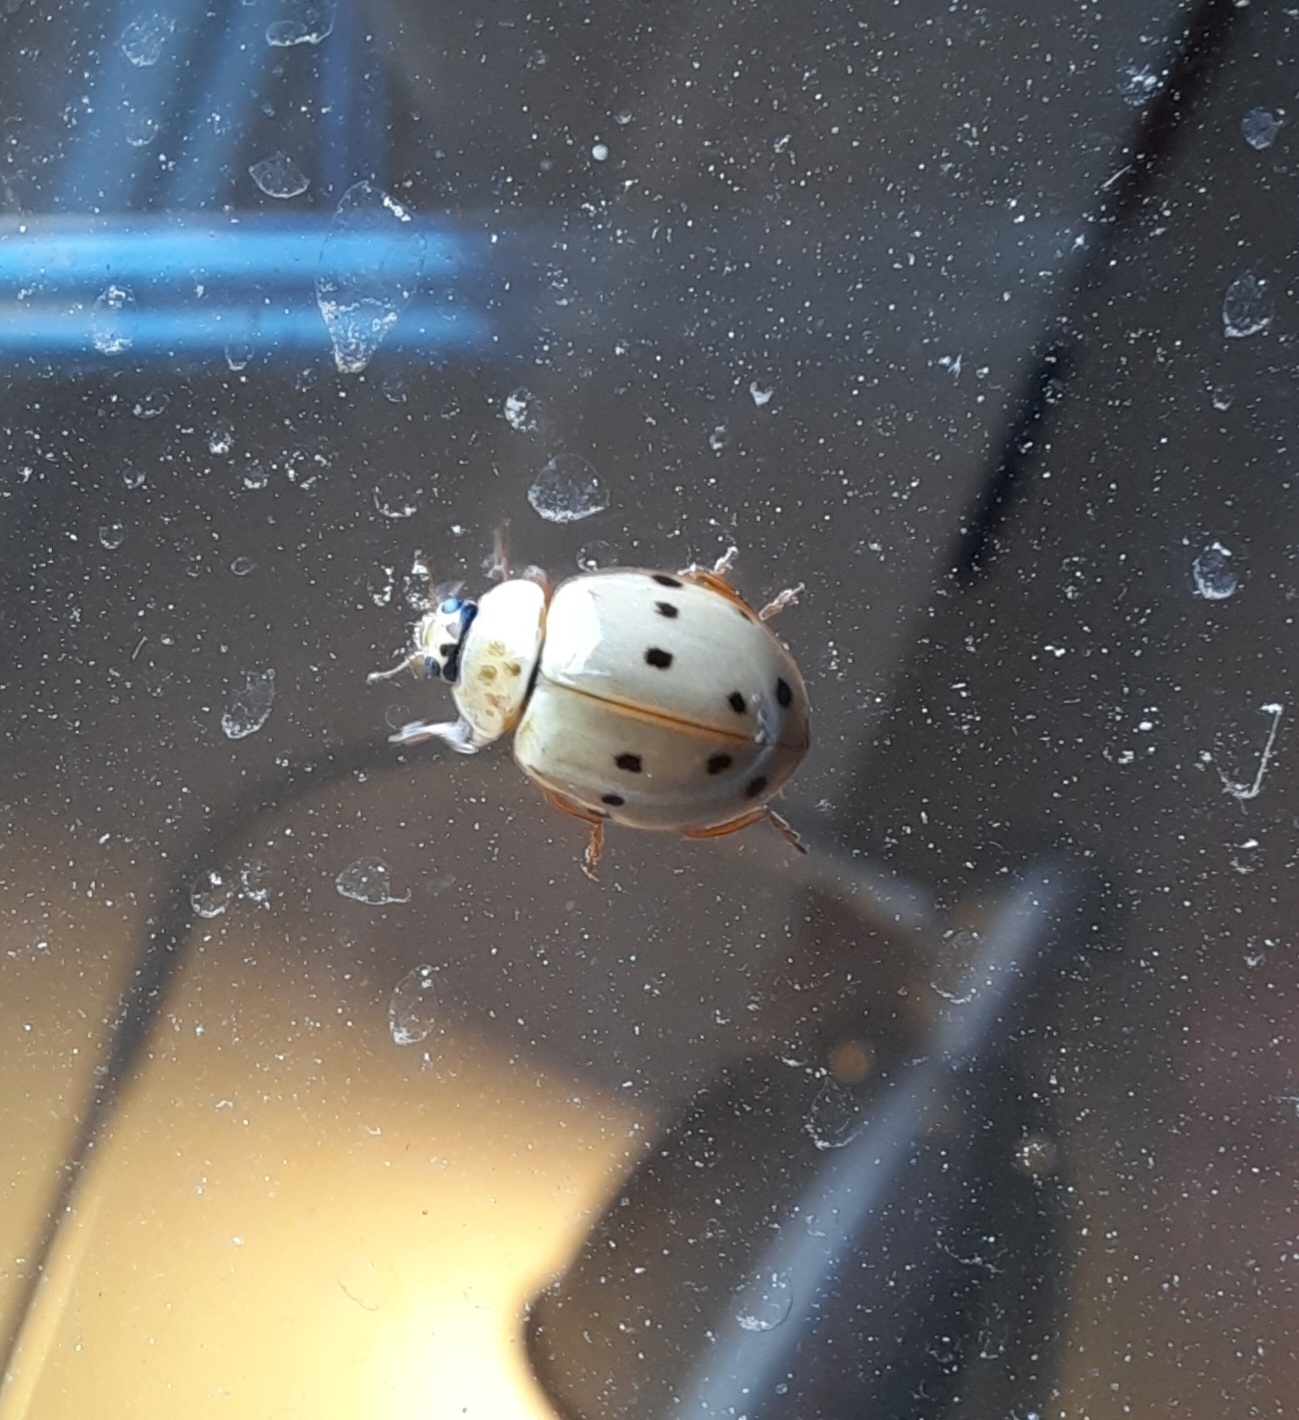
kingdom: Animalia
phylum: Arthropoda
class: Insecta
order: Coleoptera
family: Coccinellidae
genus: Harmonia
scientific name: Harmonia quadripunctata
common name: Cream-streaked ladybird
